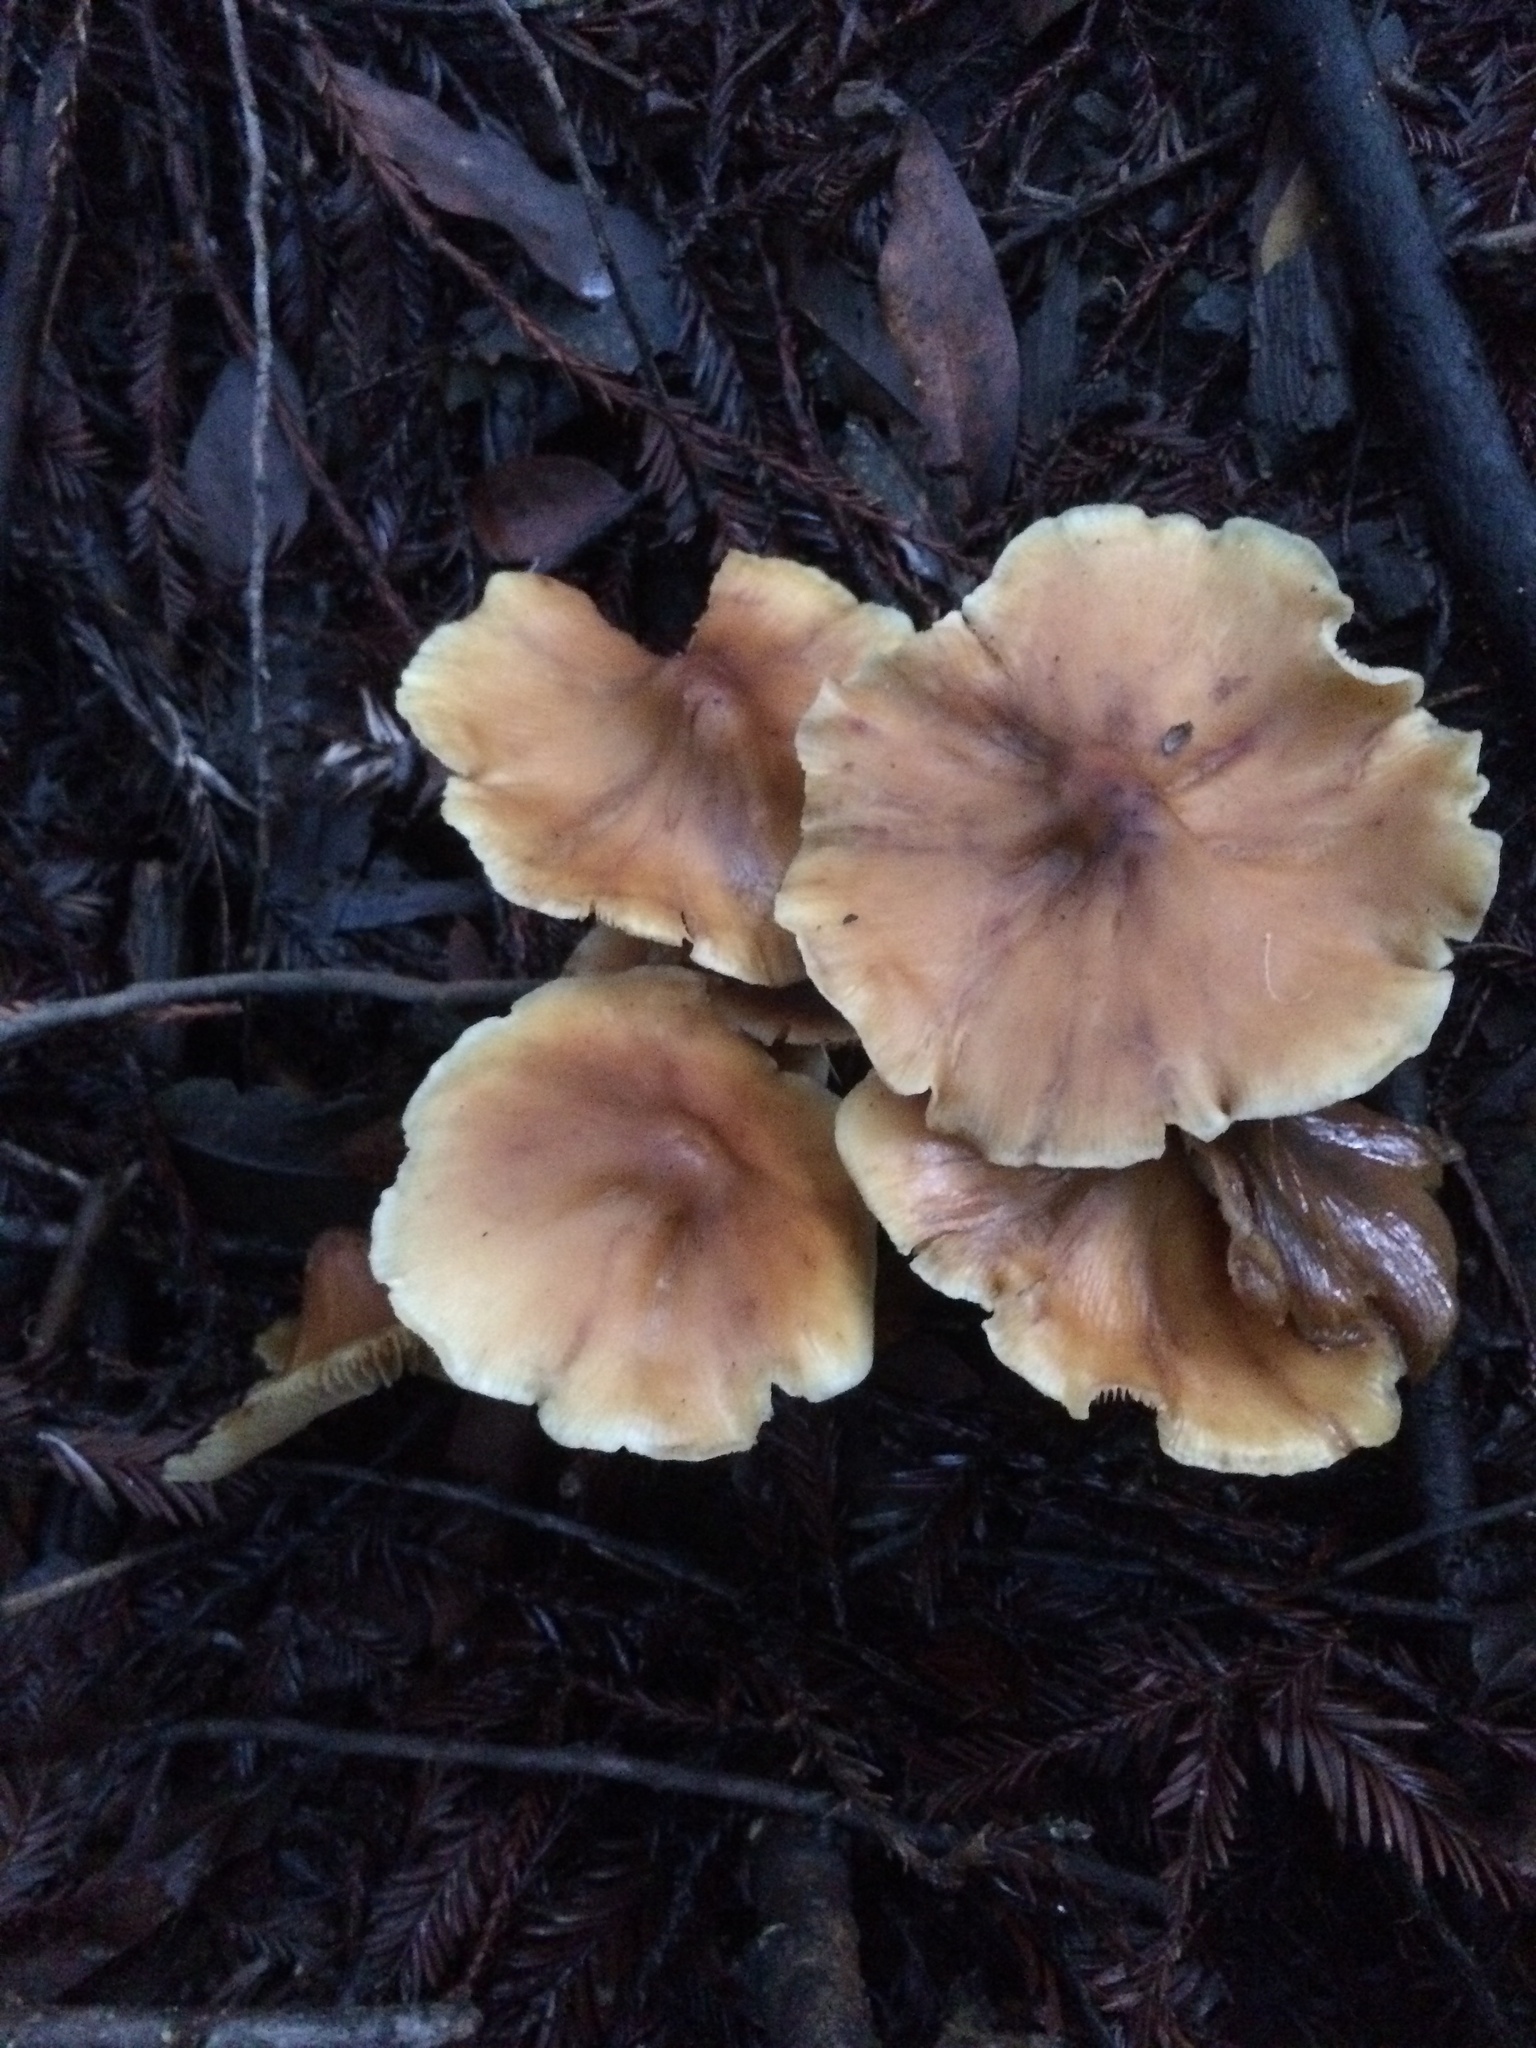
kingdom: Fungi
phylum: Basidiomycota
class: Agaricomycetes
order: Agaricales
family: Tricholomataceae
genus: Caulorhiza
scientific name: Caulorhiza umbonata
